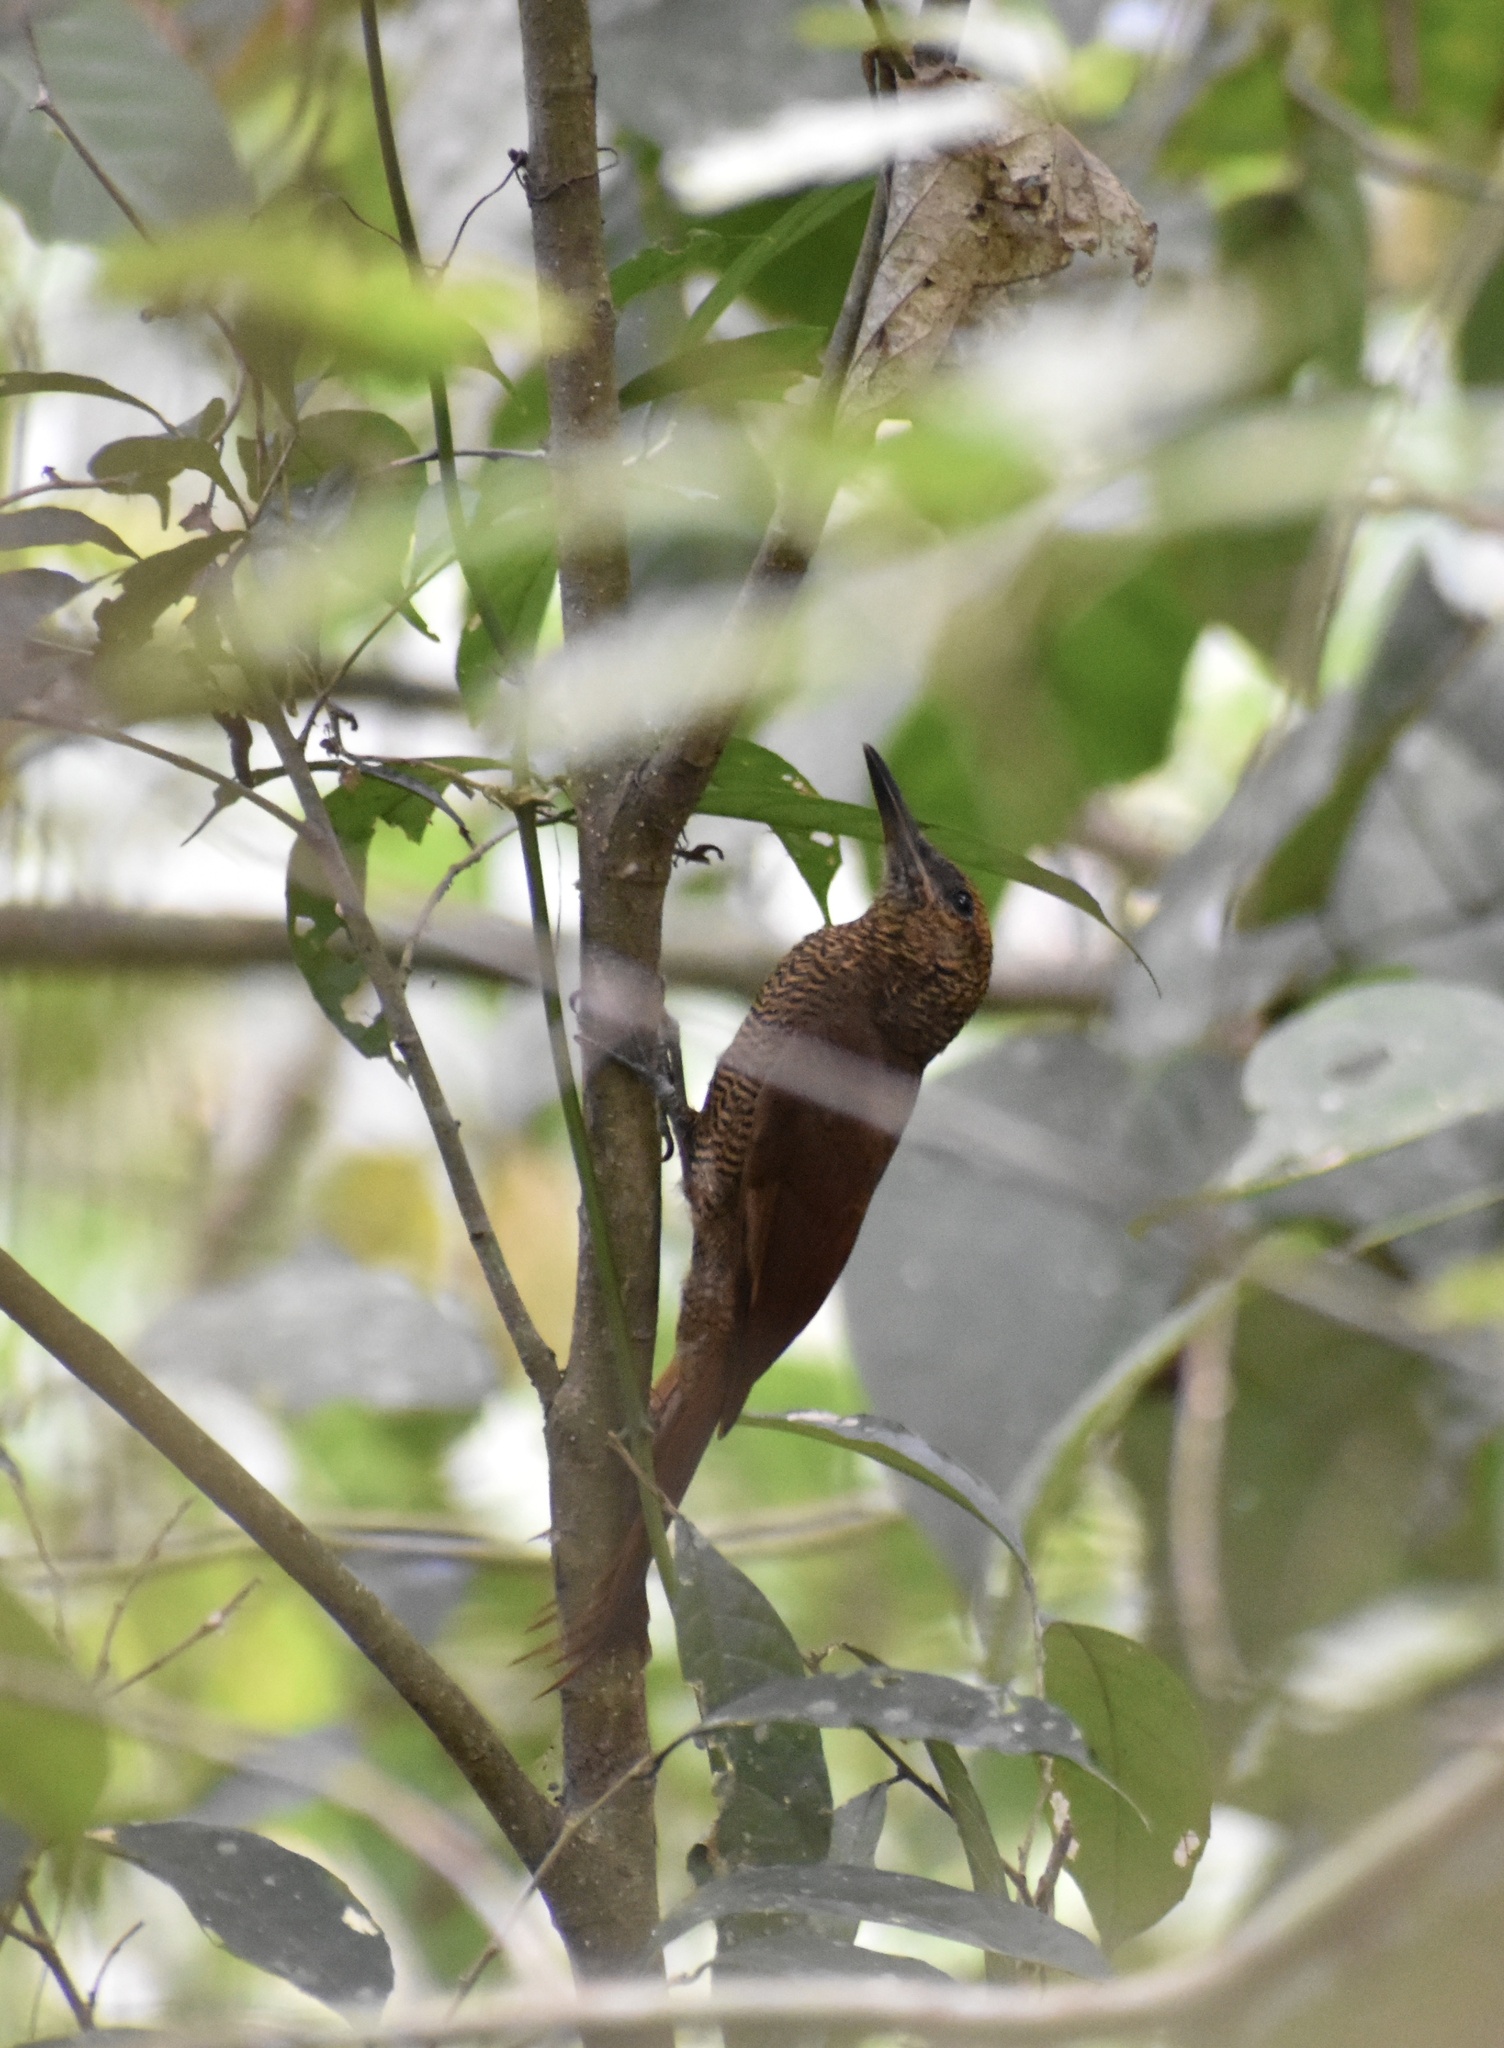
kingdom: Animalia
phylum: Chordata
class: Aves
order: Passeriformes
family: Furnariidae
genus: Dendrocolaptes
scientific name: Dendrocolaptes sanctithomae
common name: Northern barred-woodcreeper
